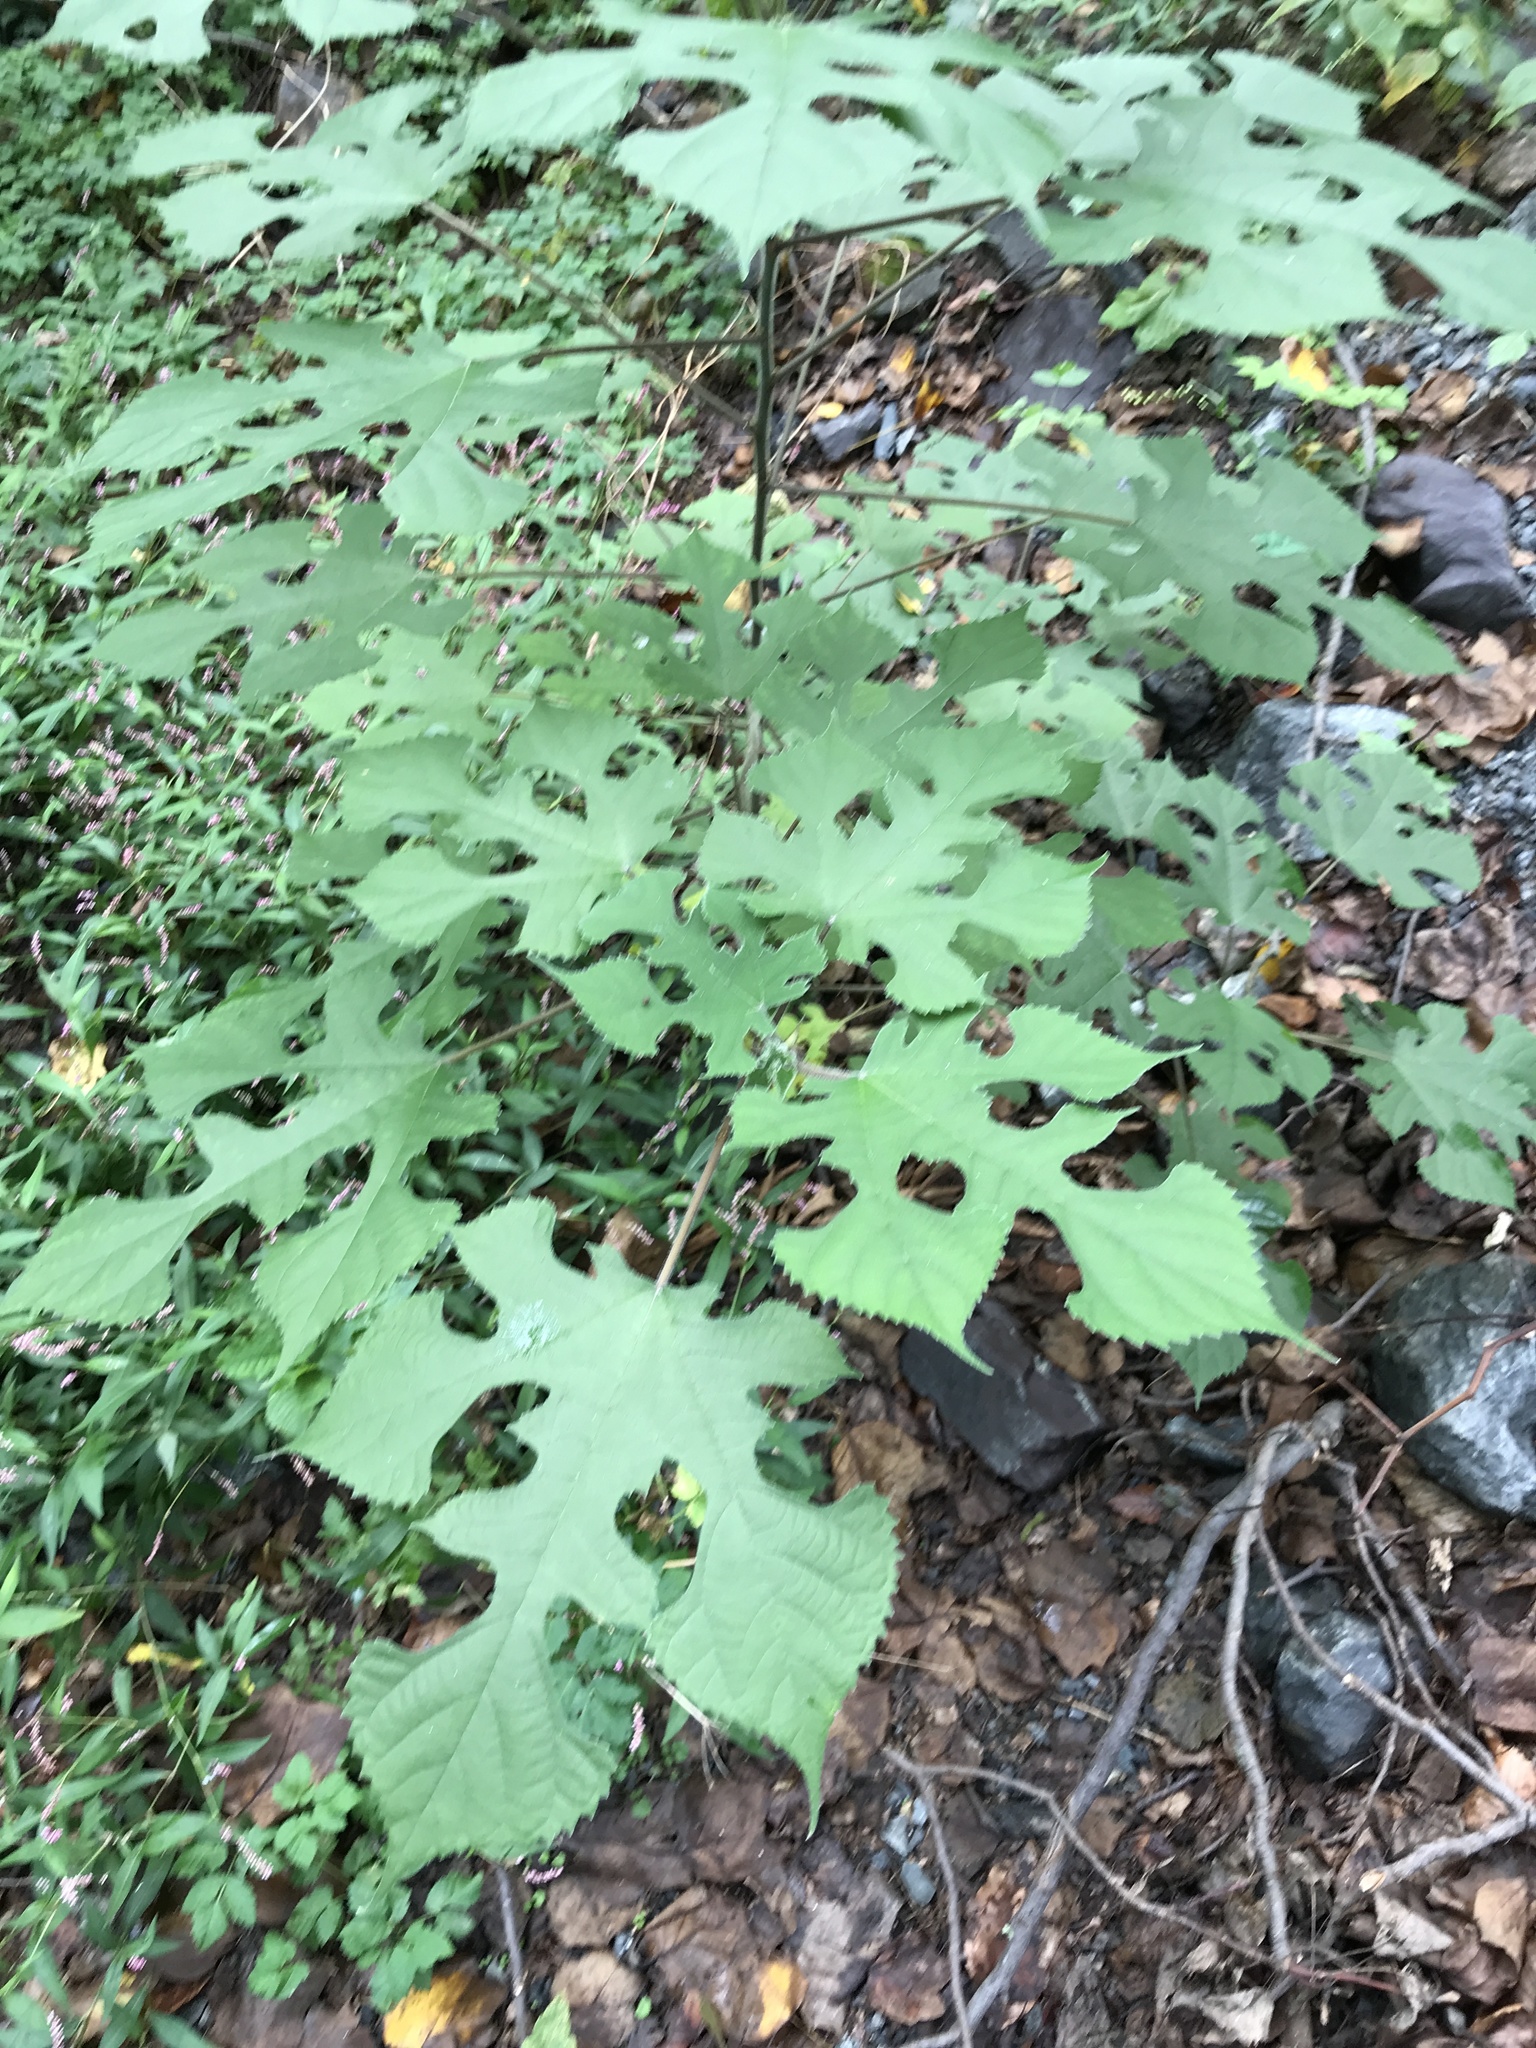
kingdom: Plantae
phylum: Tracheophyta
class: Magnoliopsida
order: Rosales
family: Moraceae
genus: Broussonetia
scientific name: Broussonetia papyrifera
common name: Paper mulberry
